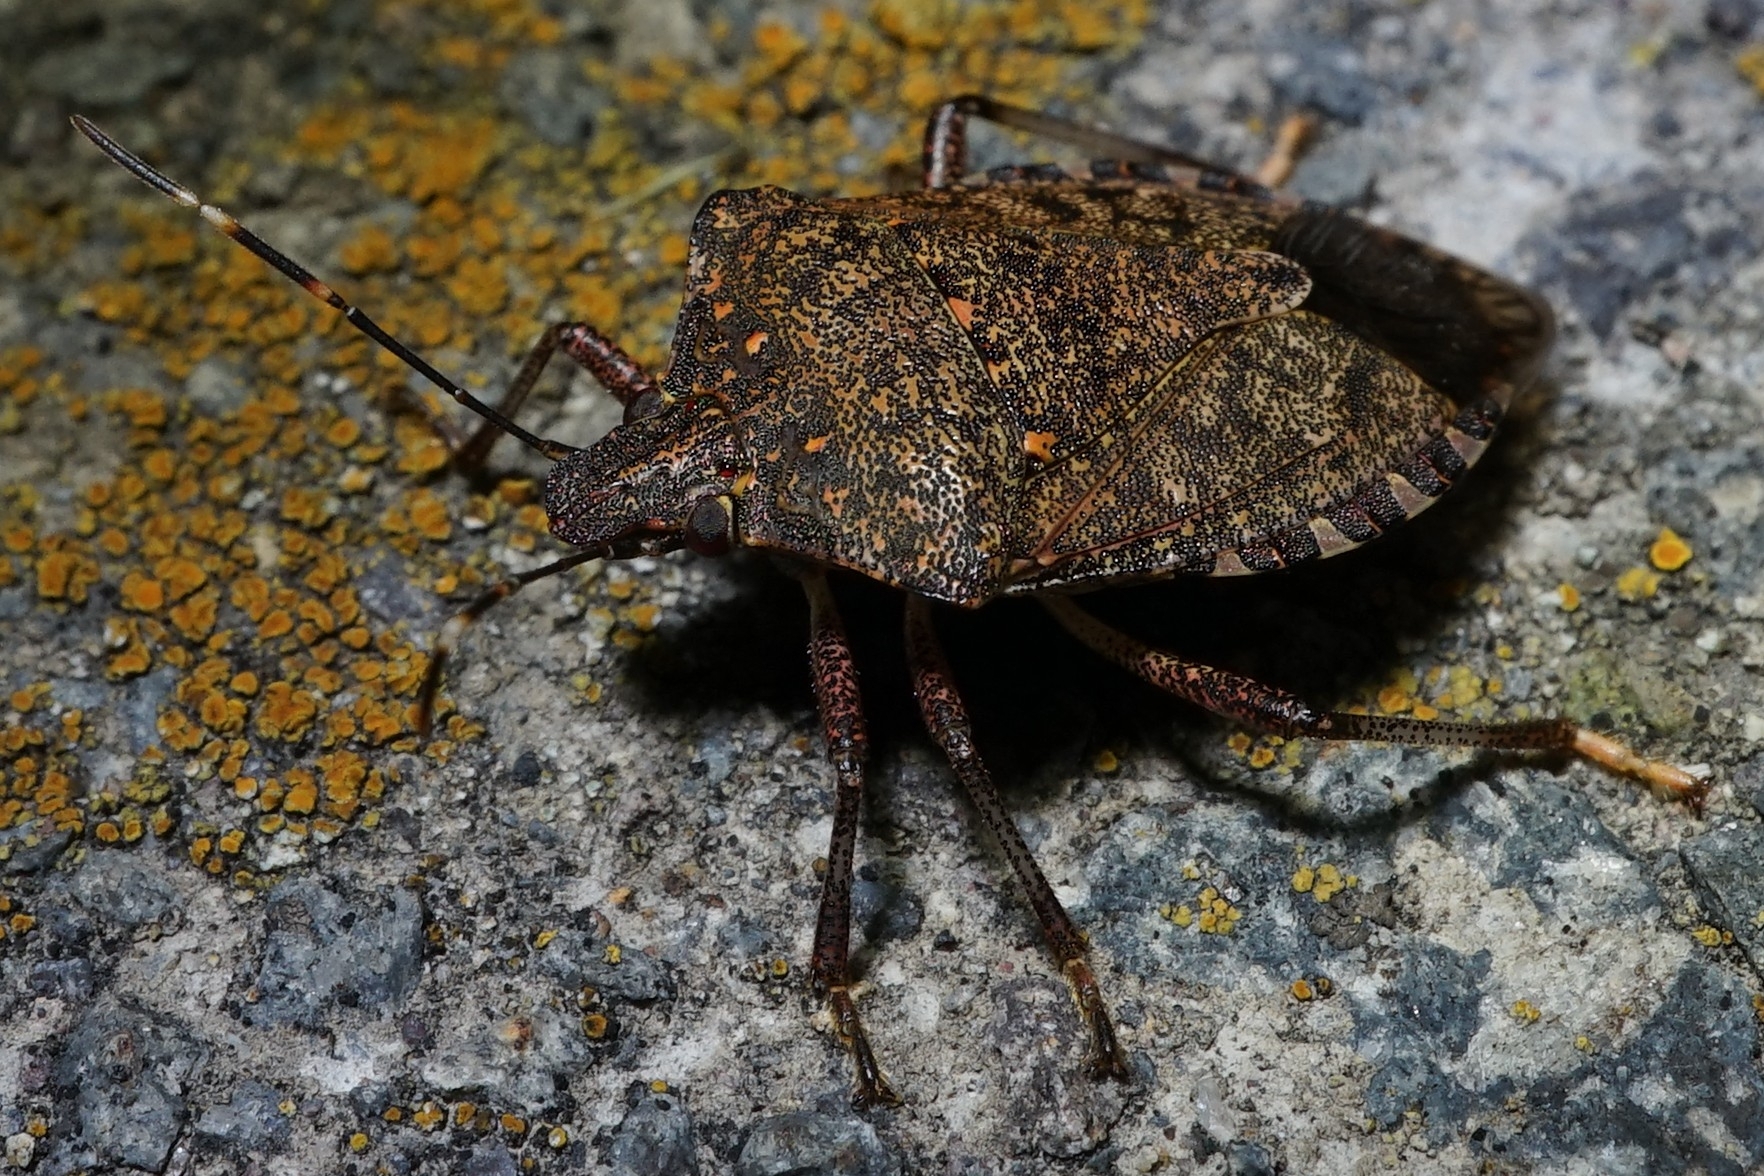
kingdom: Animalia
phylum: Arthropoda
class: Insecta
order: Hemiptera
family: Pentatomidae
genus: Halyomorpha
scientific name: Halyomorpha halys
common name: Brown marmorated stink bug
